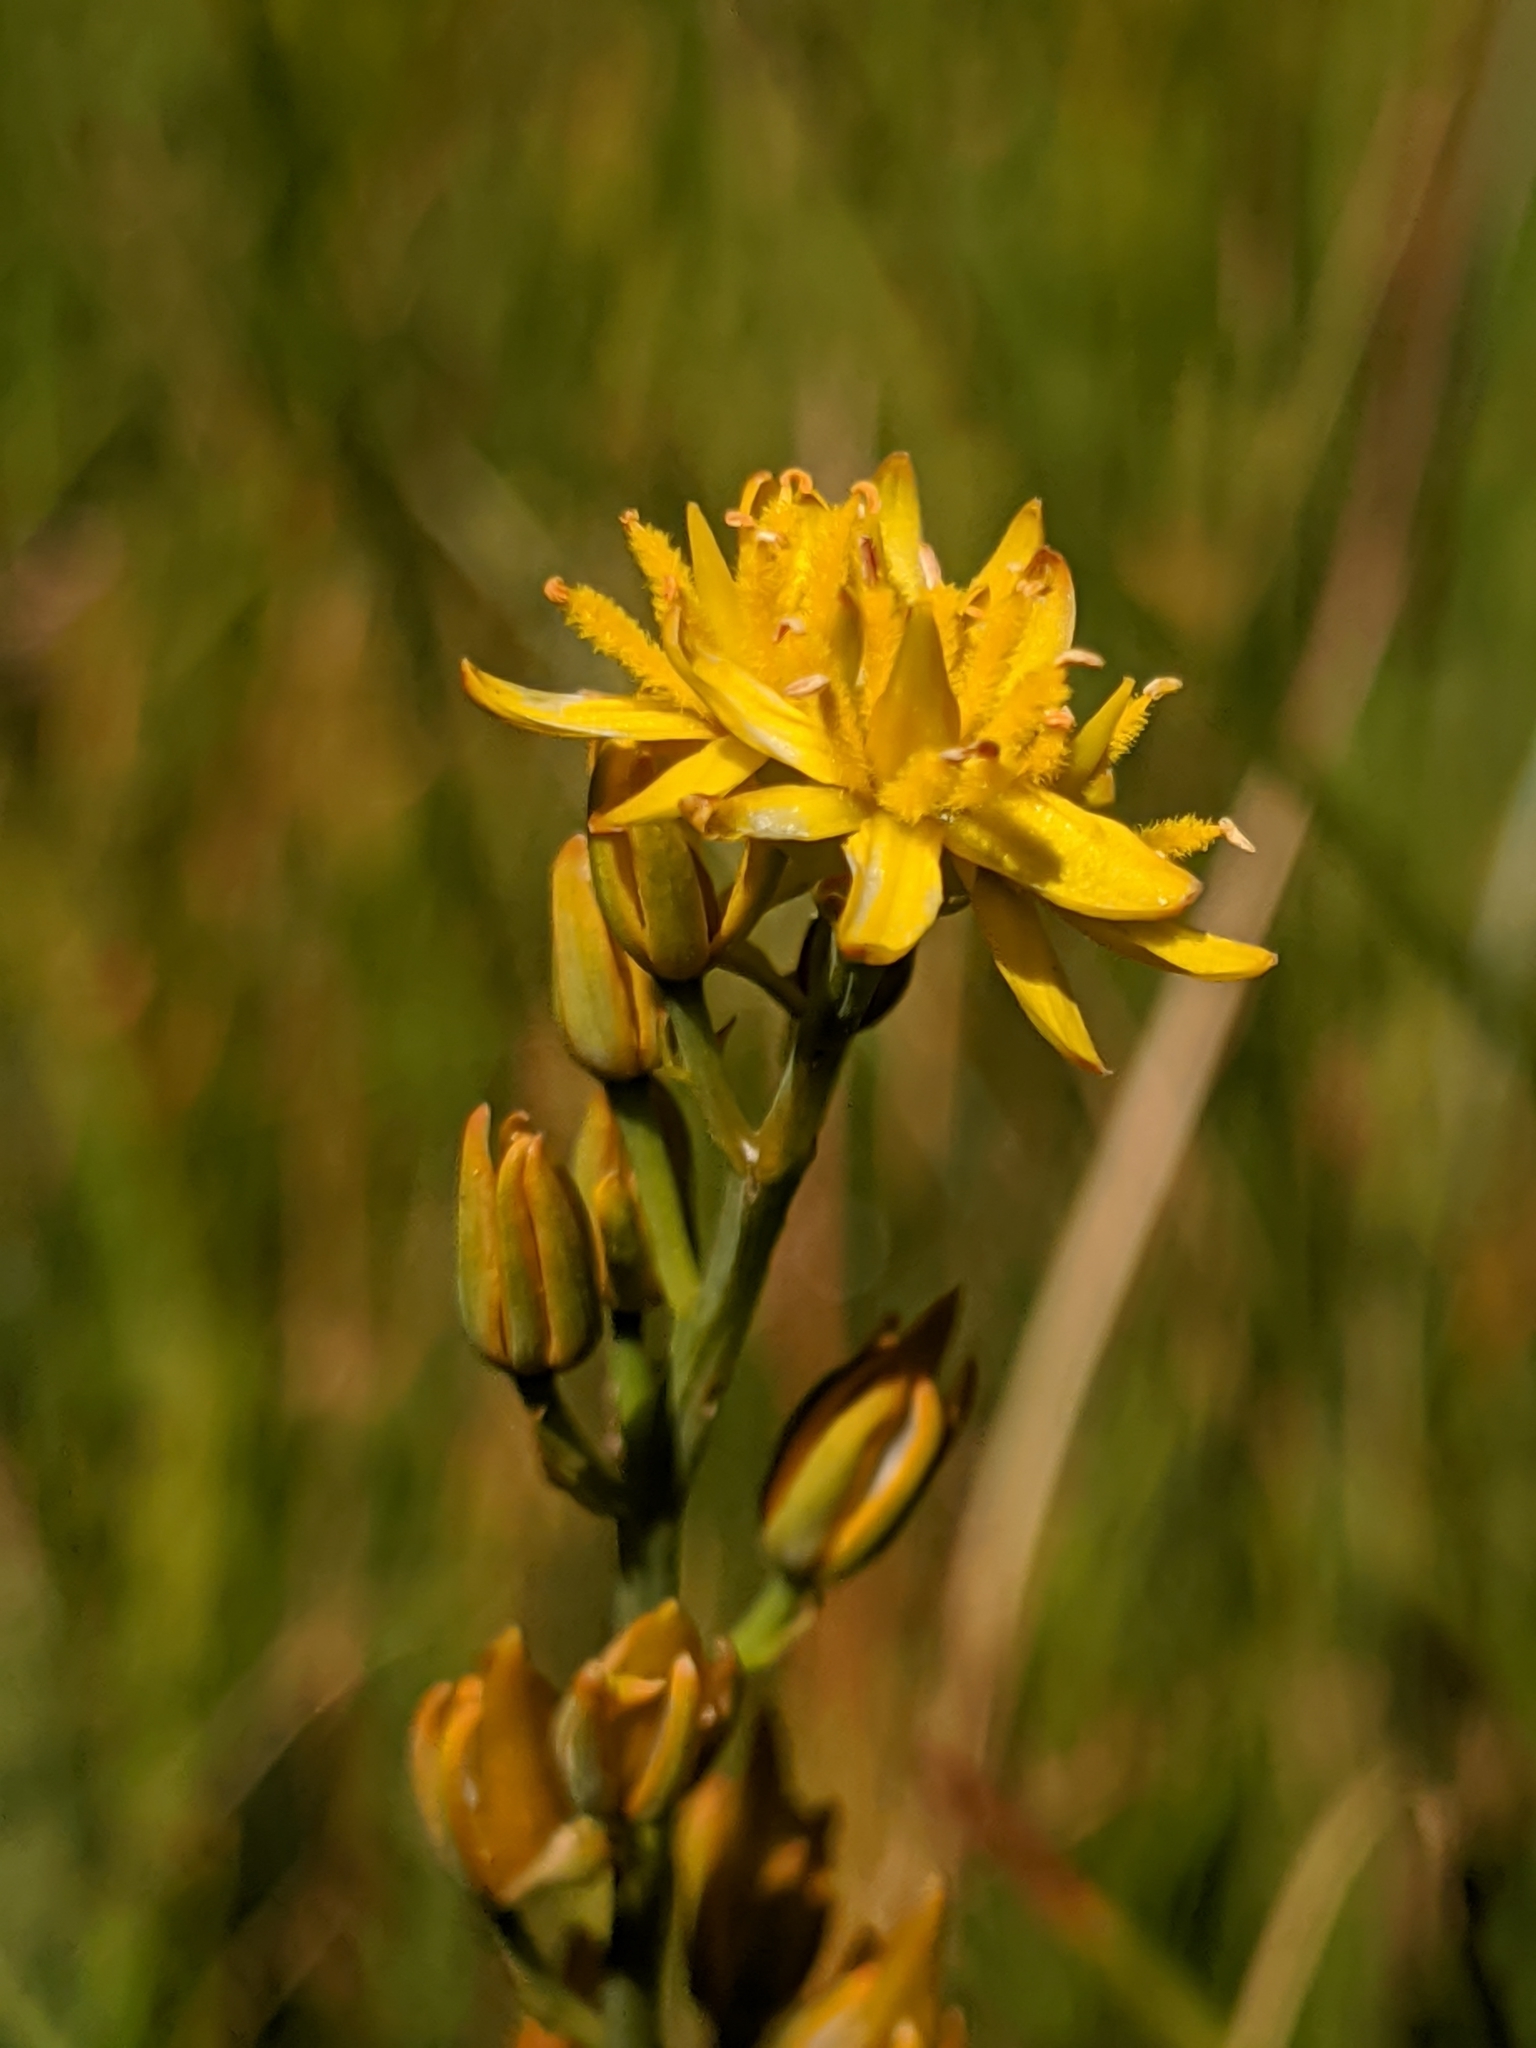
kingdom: Plantae
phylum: Tracheophyta
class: Liliopsida
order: Dioscoreales
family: Nartheciaceae
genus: Narthecium
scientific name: Narthecium californicum
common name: California bog-asphodel
